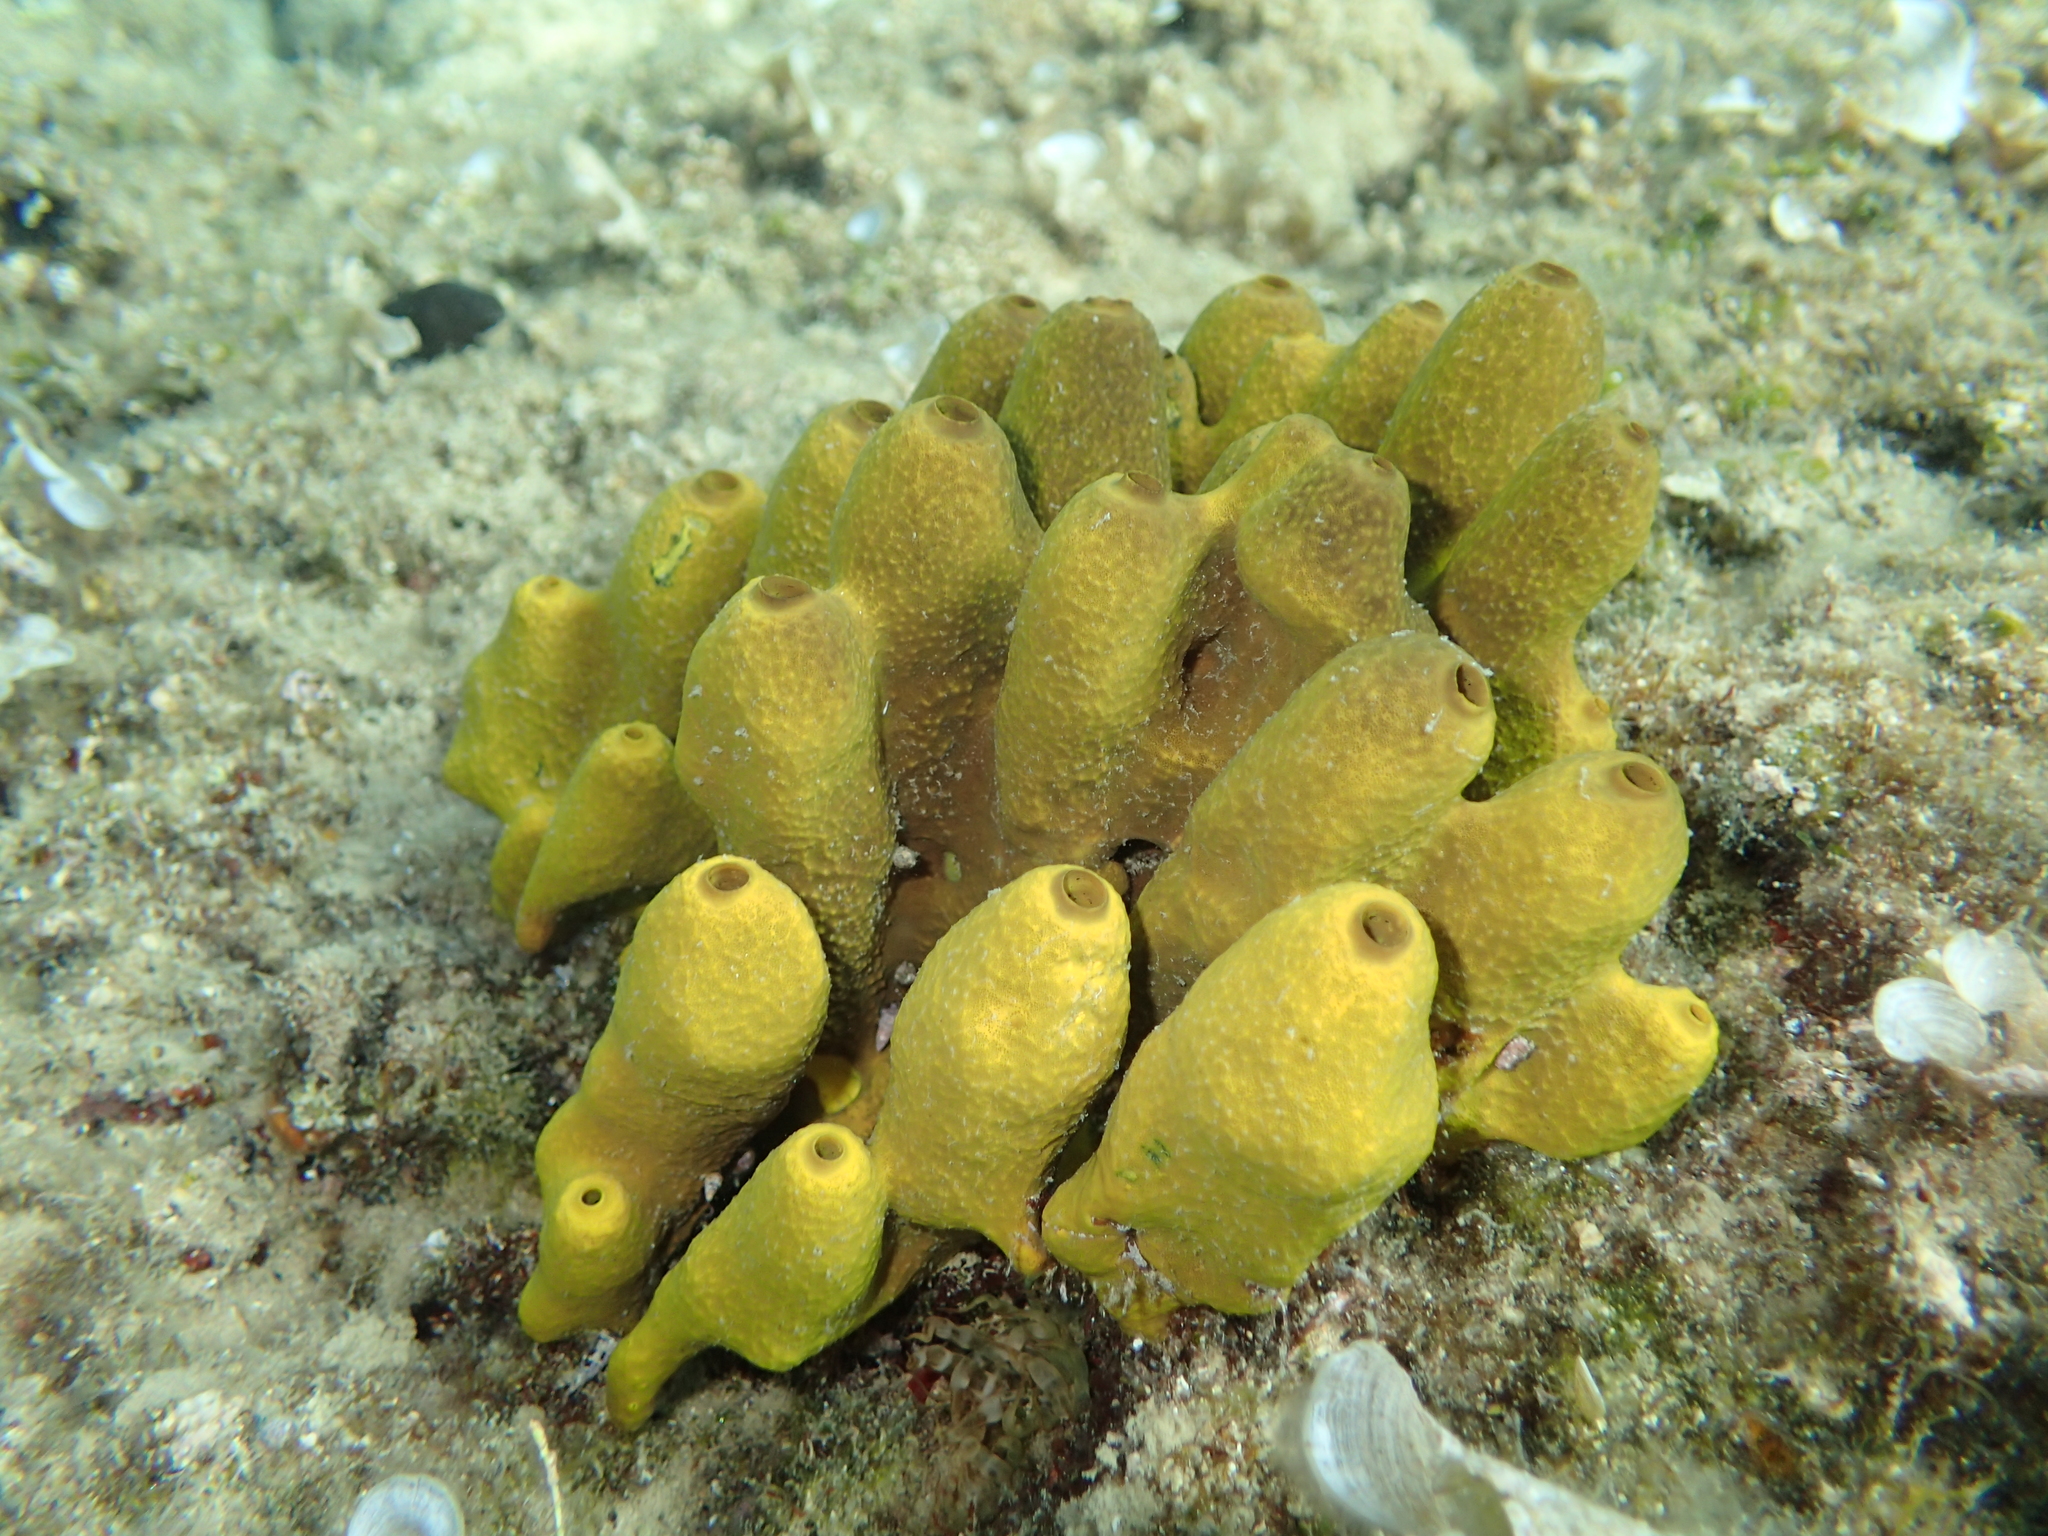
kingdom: Animalia
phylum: Porifera
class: Demospongiae
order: Verongiida
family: Aplysinidae
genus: Aplysina
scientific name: Aplysina aerophoba
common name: Aureate sponge
